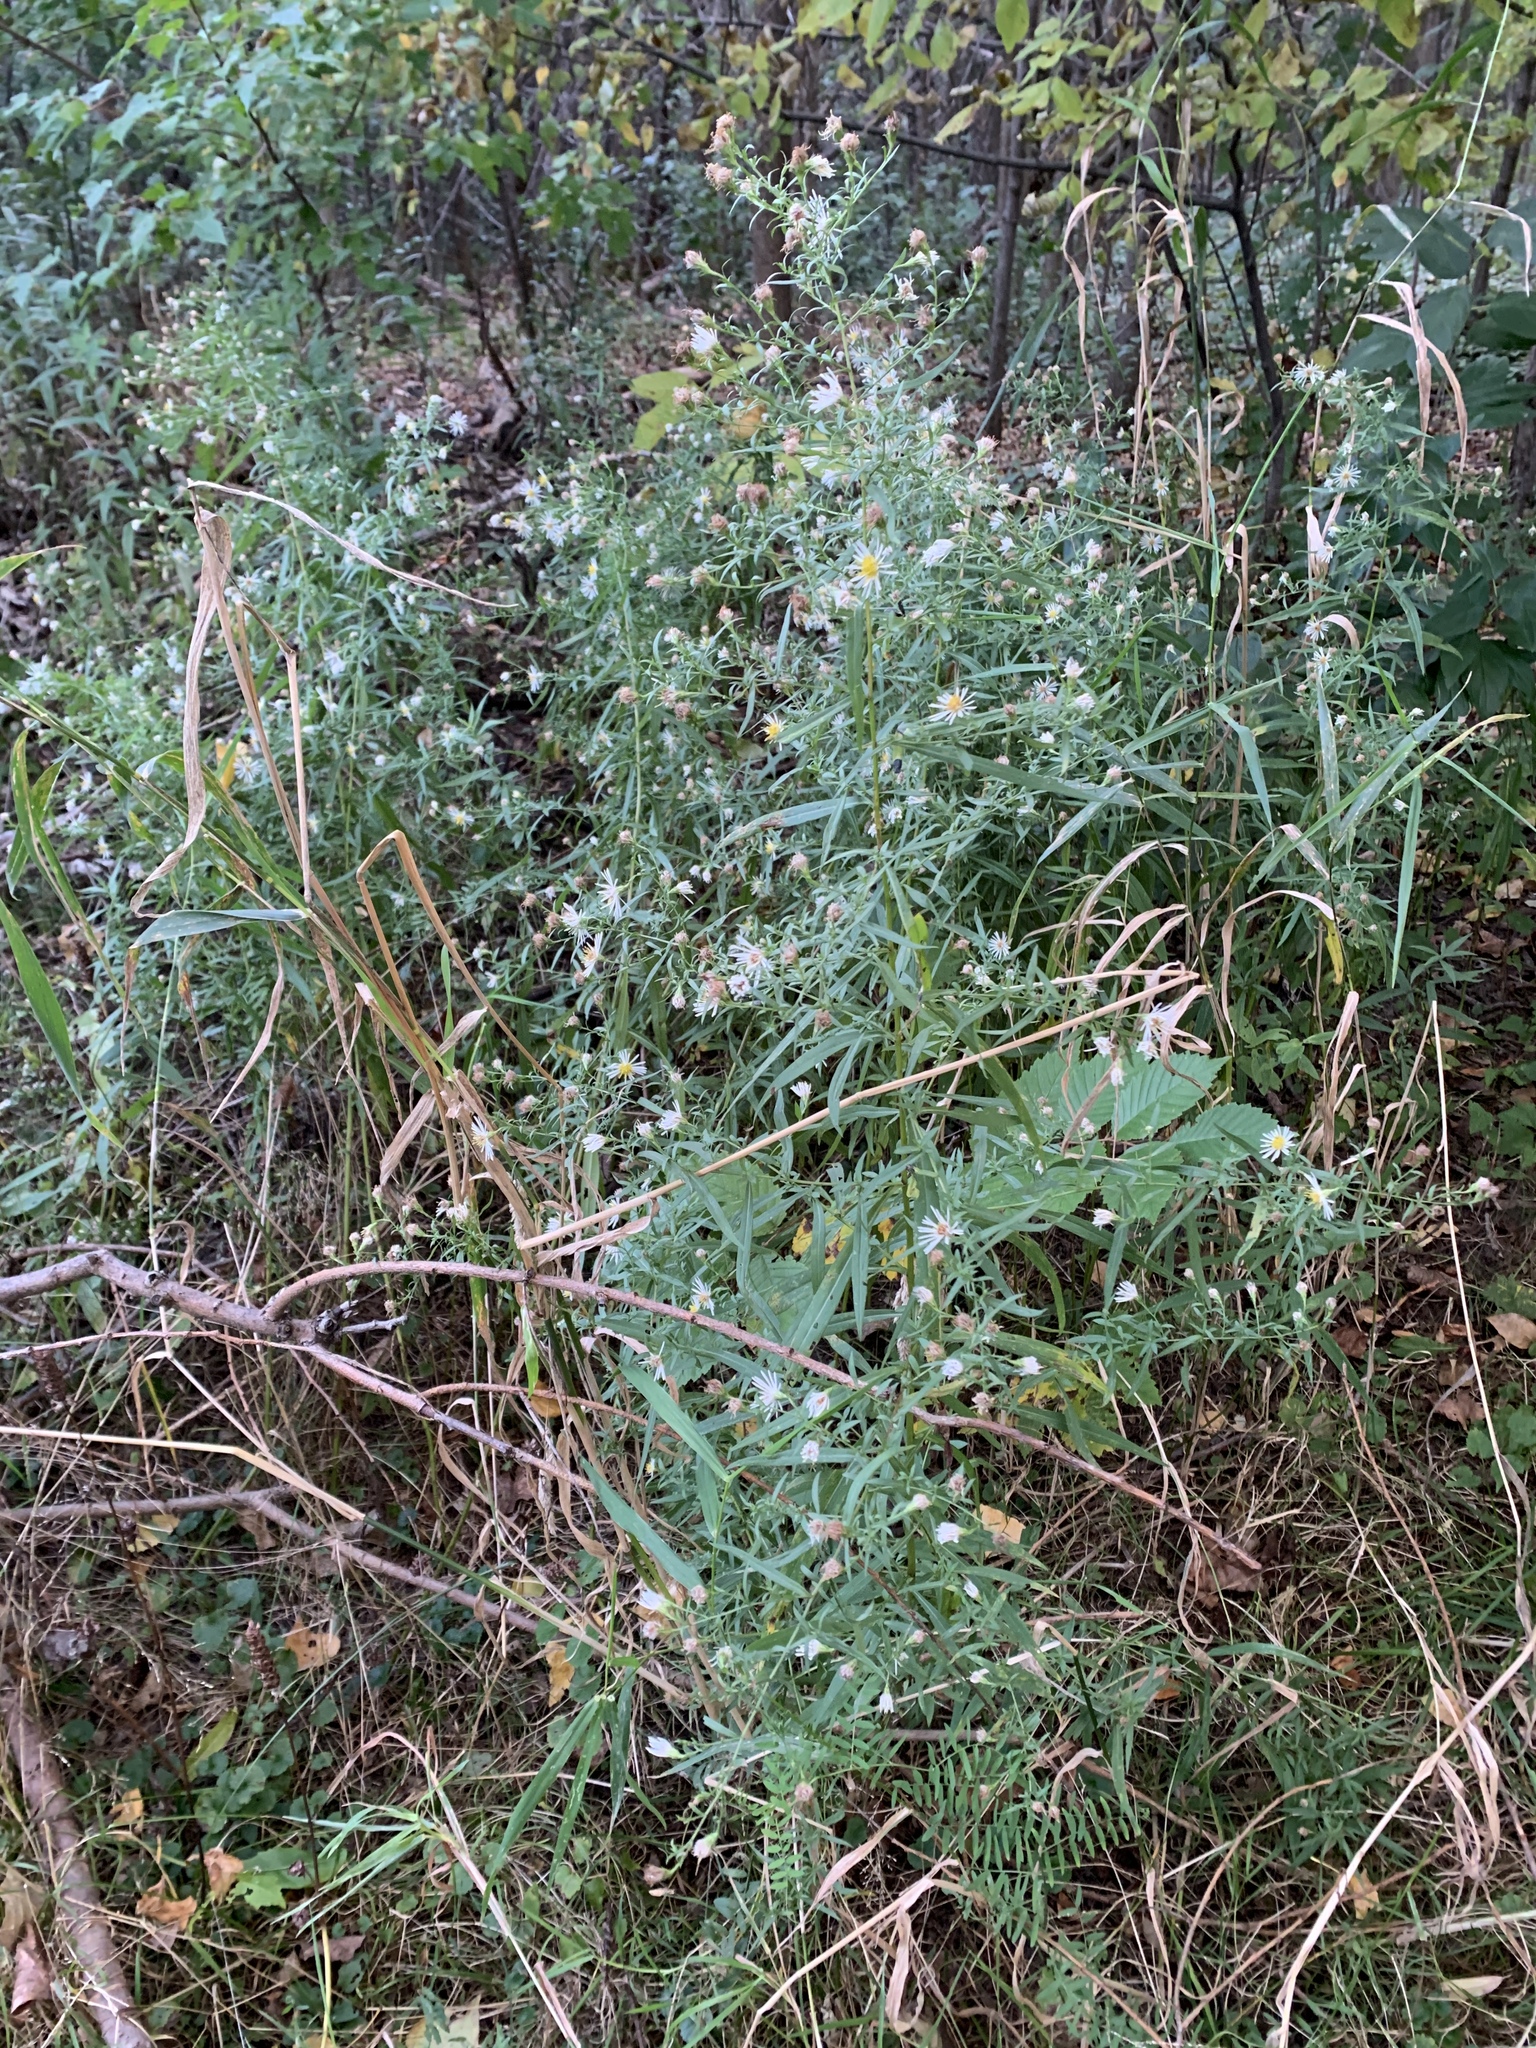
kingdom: Plantae
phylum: Tracheophyta
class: Magnoliopsida
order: Asterales
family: Asteraceae
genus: Symphyotrichum
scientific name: Symphyotrichum lanceolatum
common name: Panicled aster
